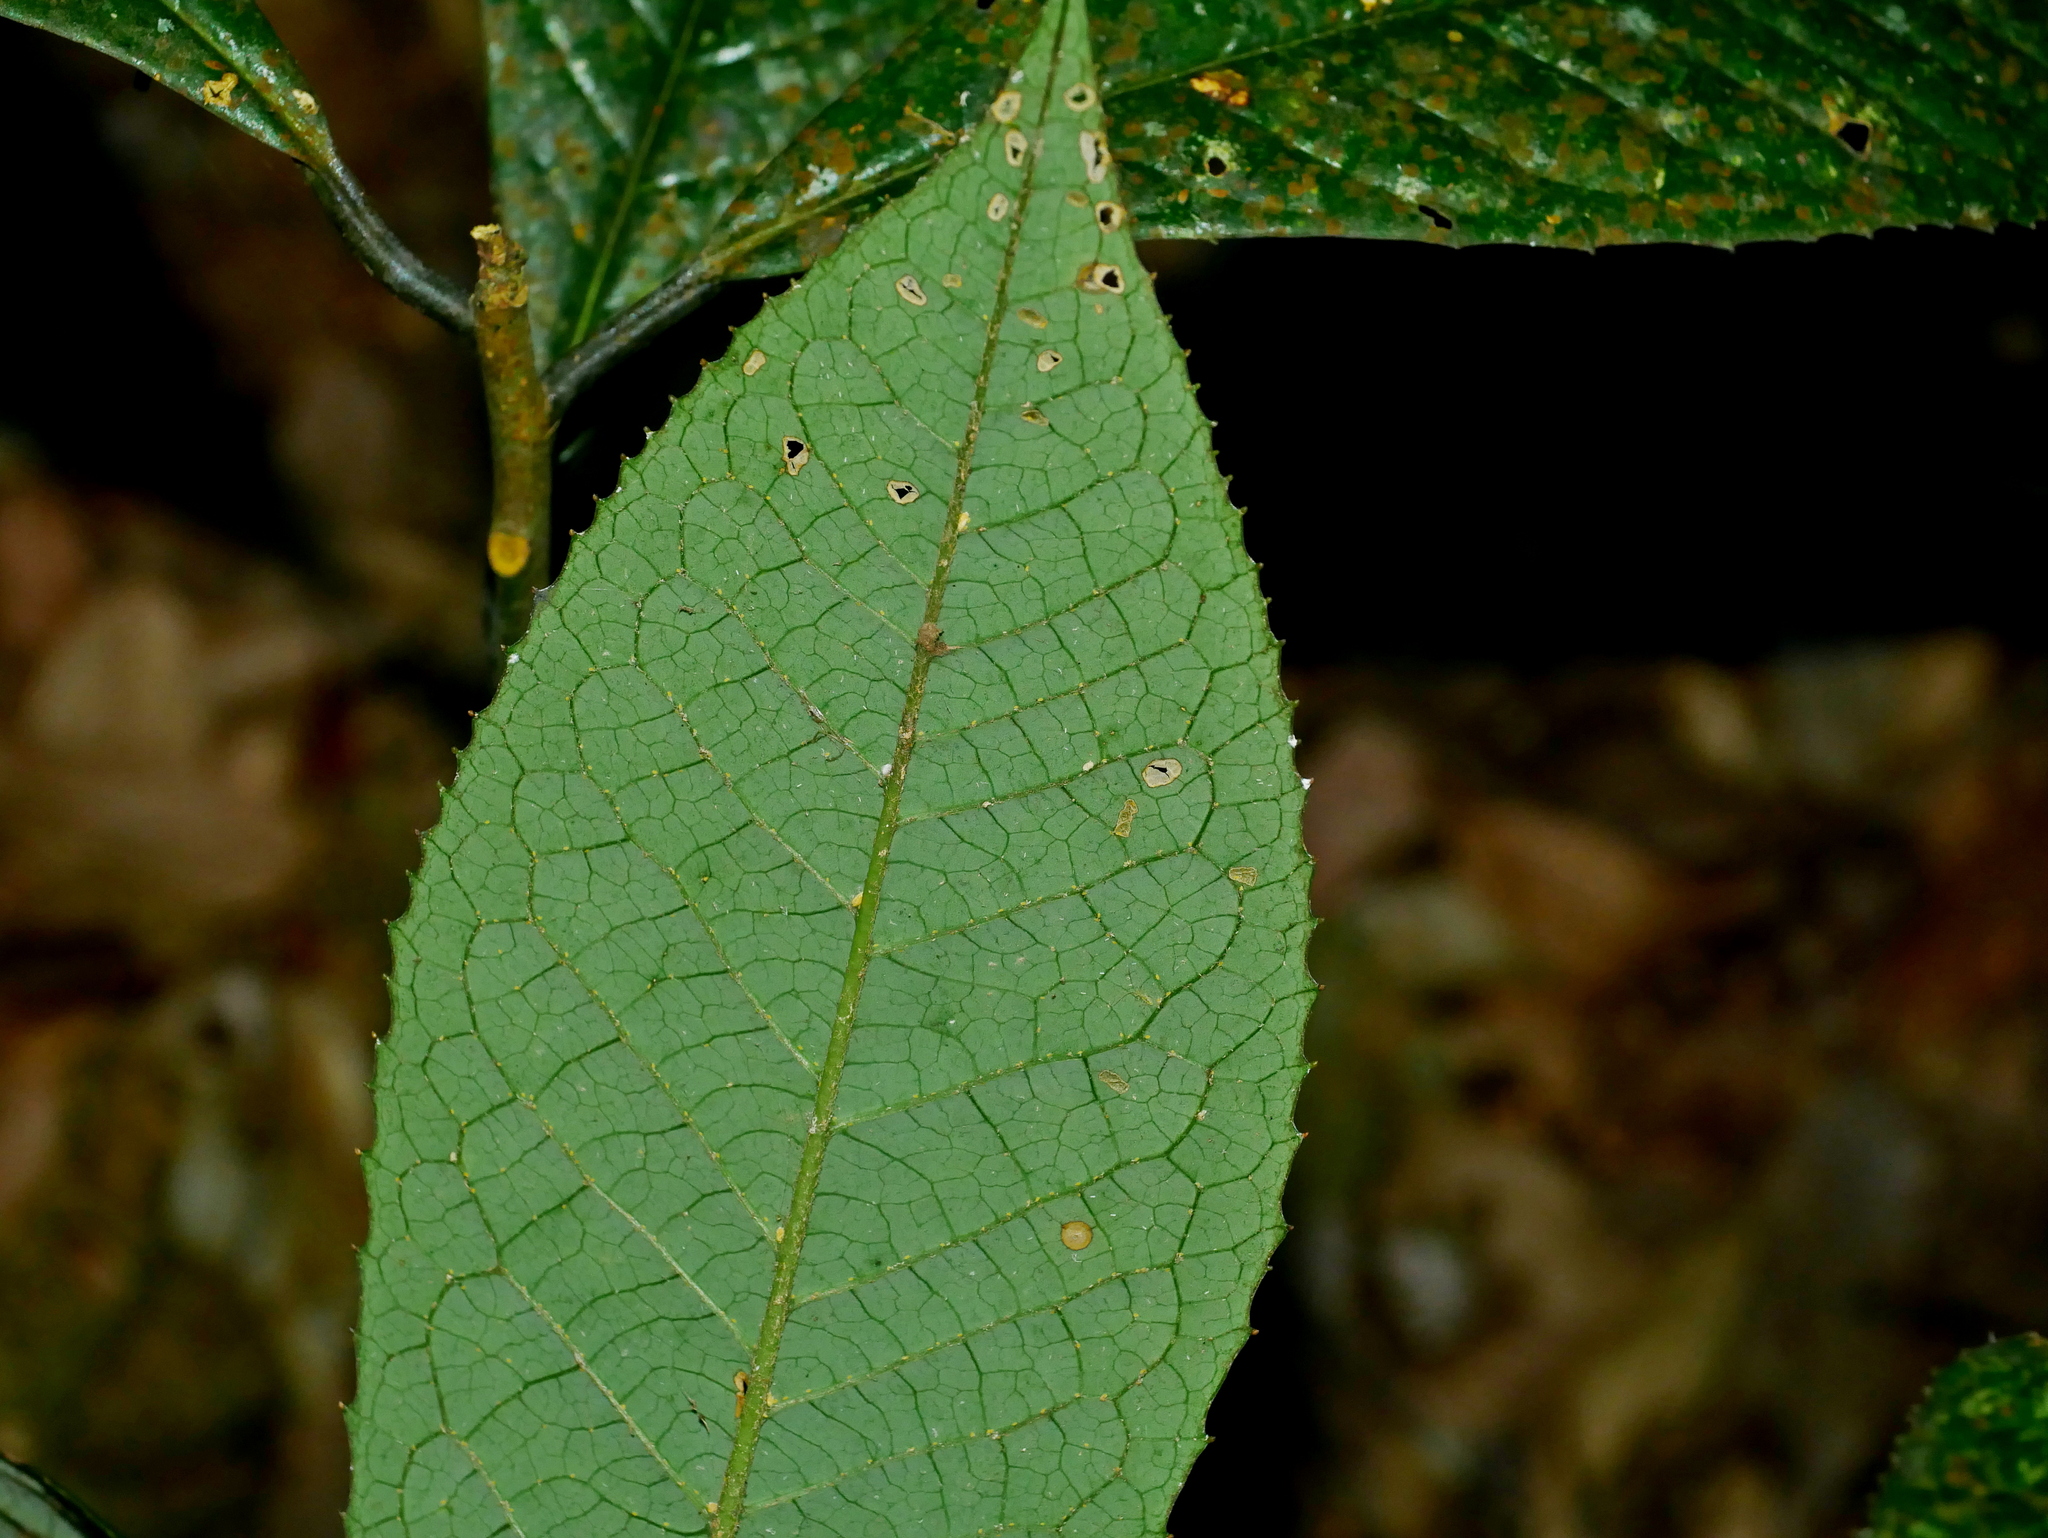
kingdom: Plantae
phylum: Tracheophyta
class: Magnoliopsida
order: Ericales
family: Symplocaceae
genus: Symplocos
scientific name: Symplocos glauca
